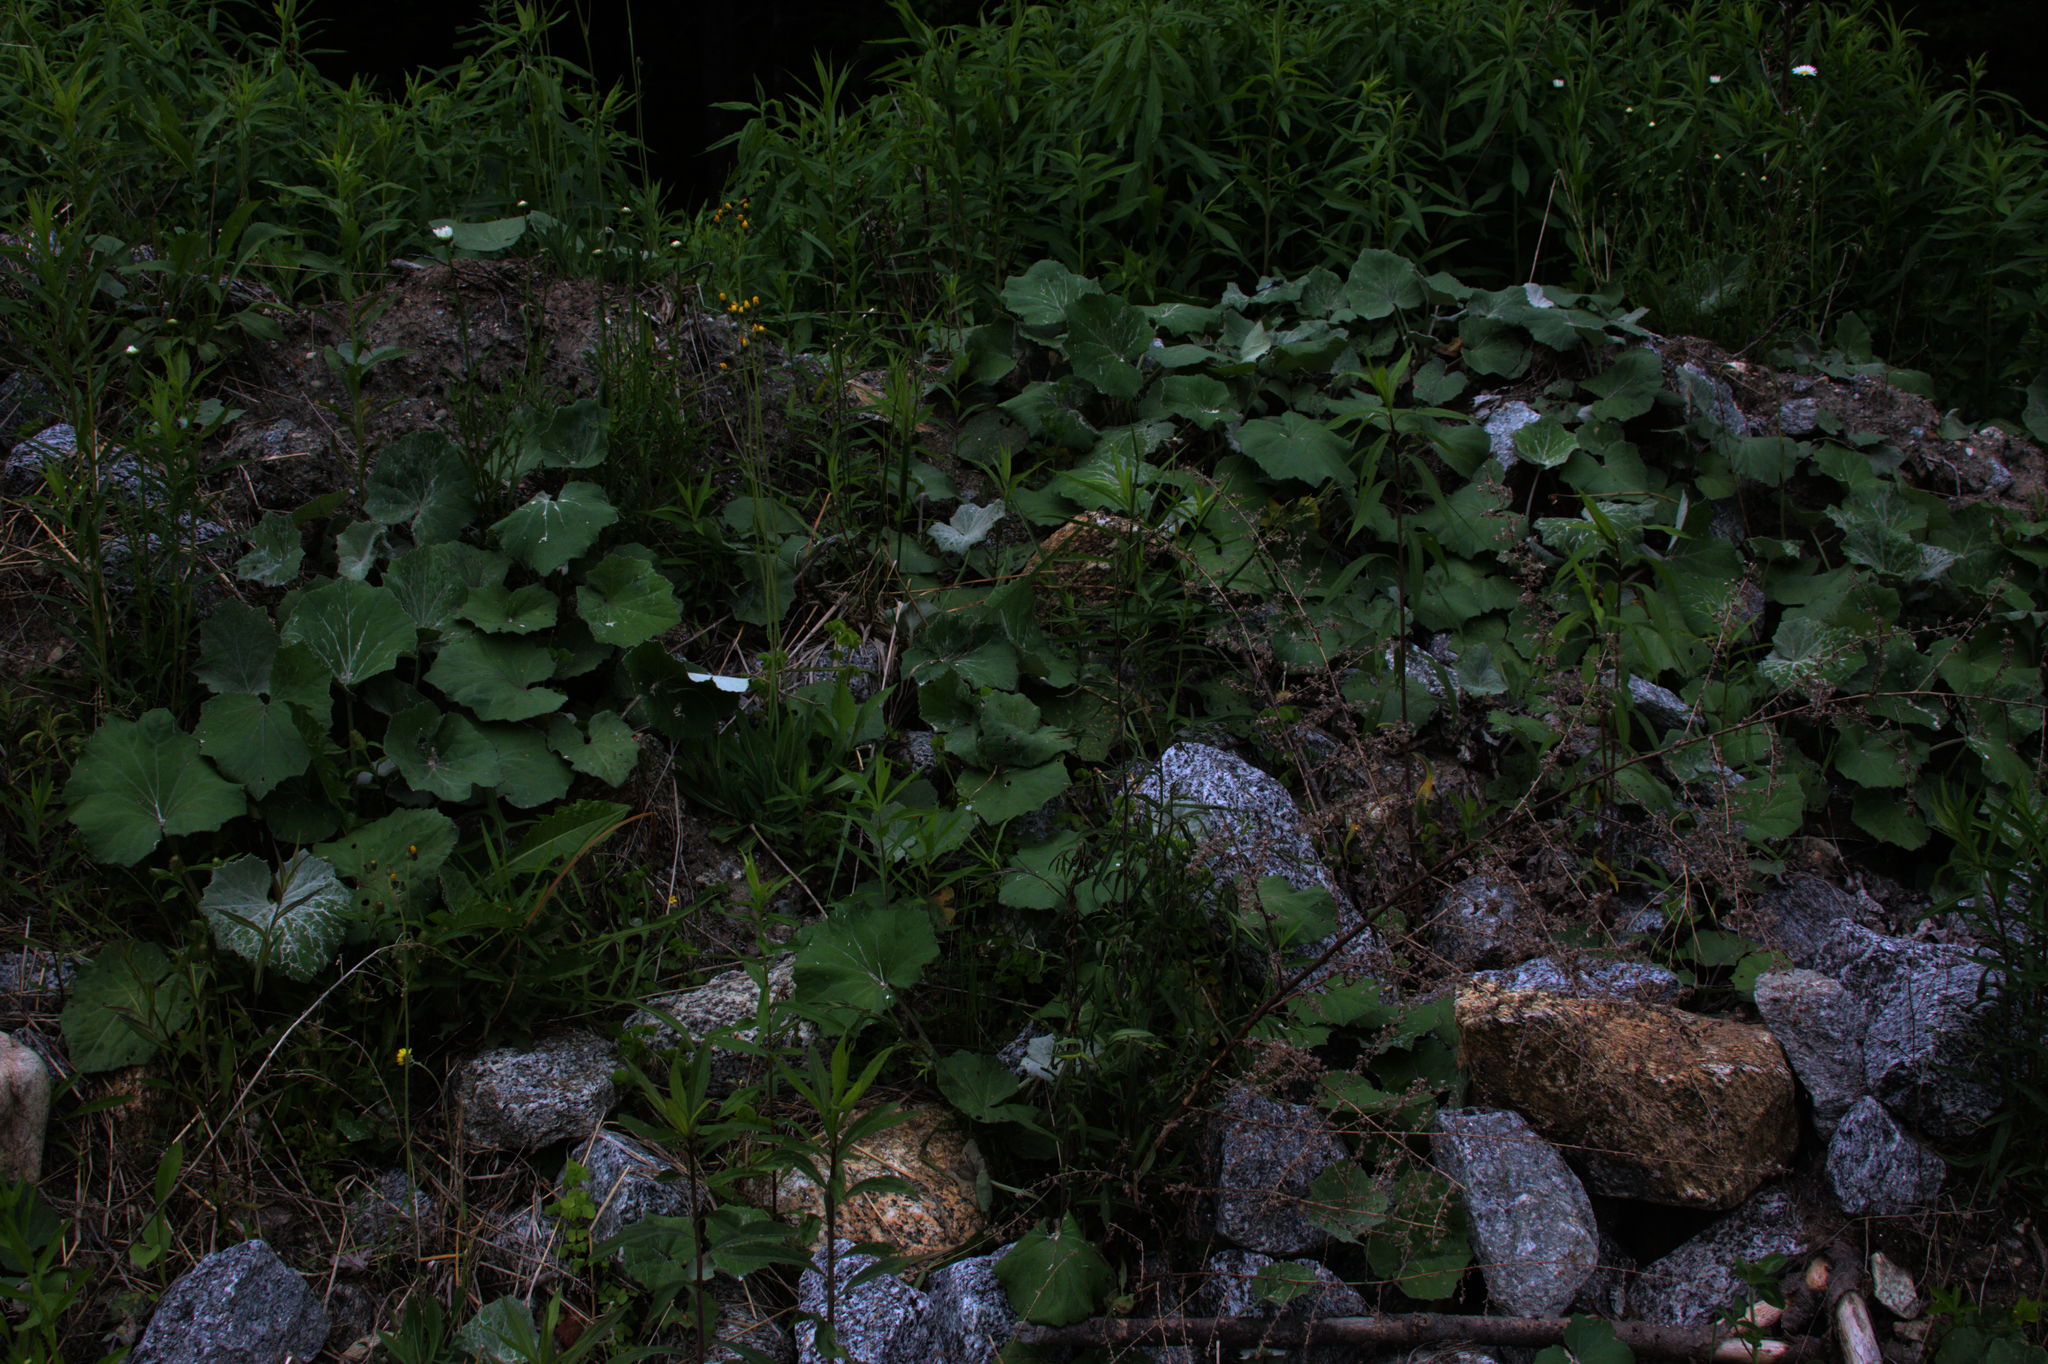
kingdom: Plantae
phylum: Tracheophyta
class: Magnoliopsida
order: Asterales
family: Asteraceae
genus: Tussilago
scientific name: Tussilago farfara
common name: Coltsfoot
